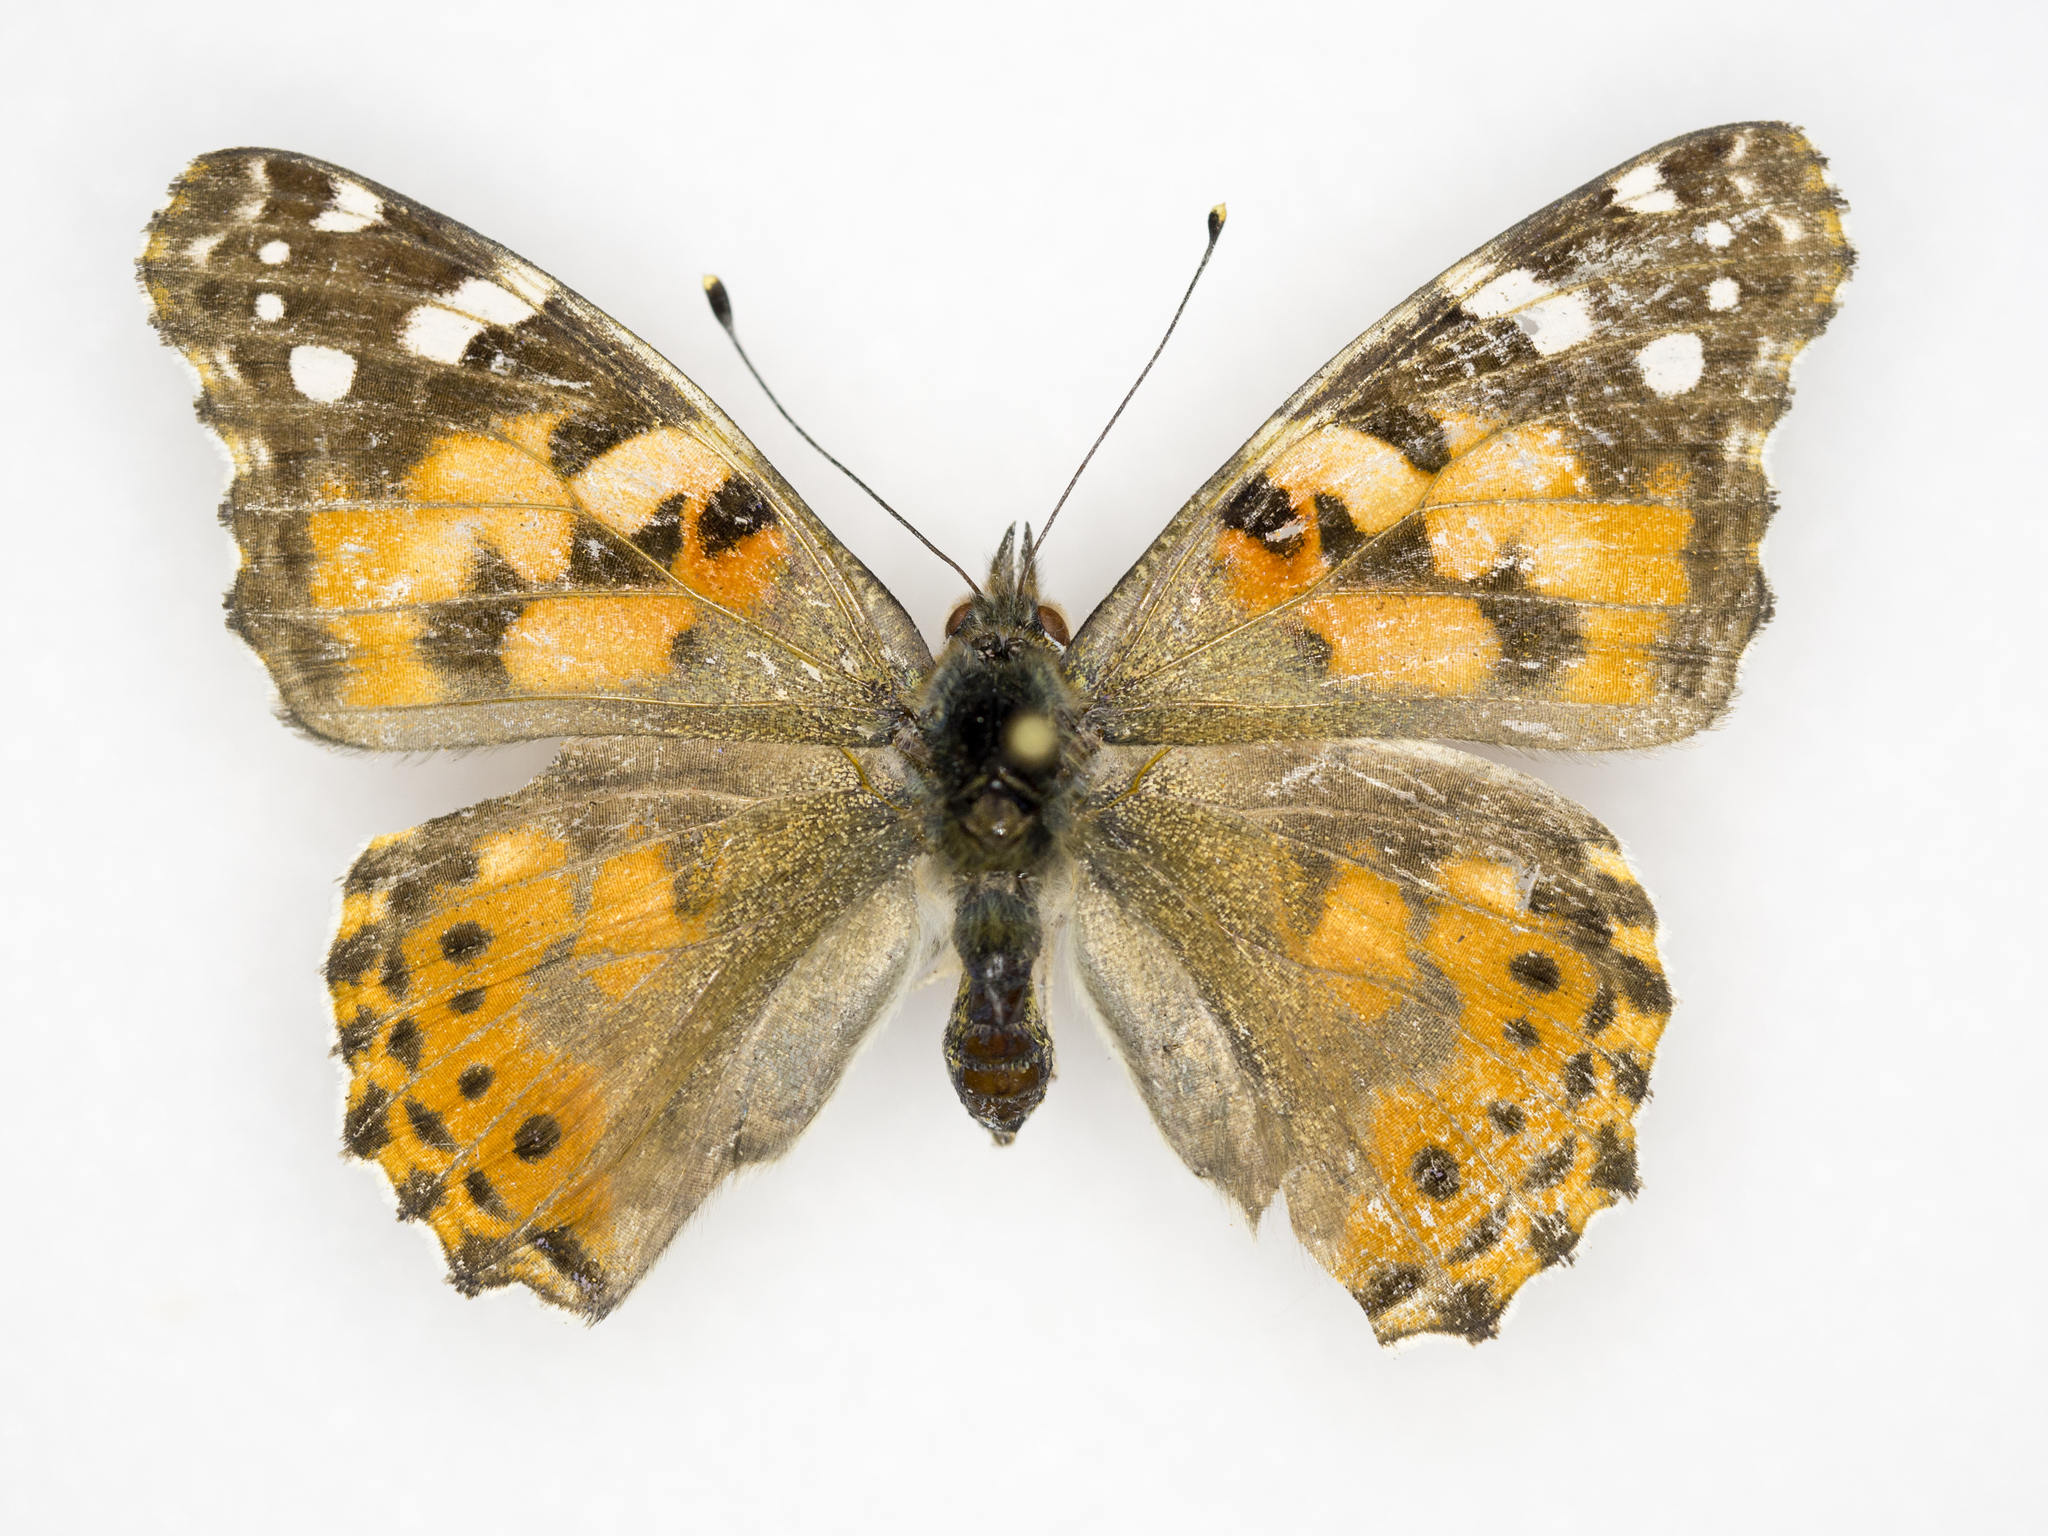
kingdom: Animalia
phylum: Arthropoda
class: Insecta
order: Lepidoptera
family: Nymphalidae
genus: Vanessa
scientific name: Vanessa cardui
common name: Painted lady
